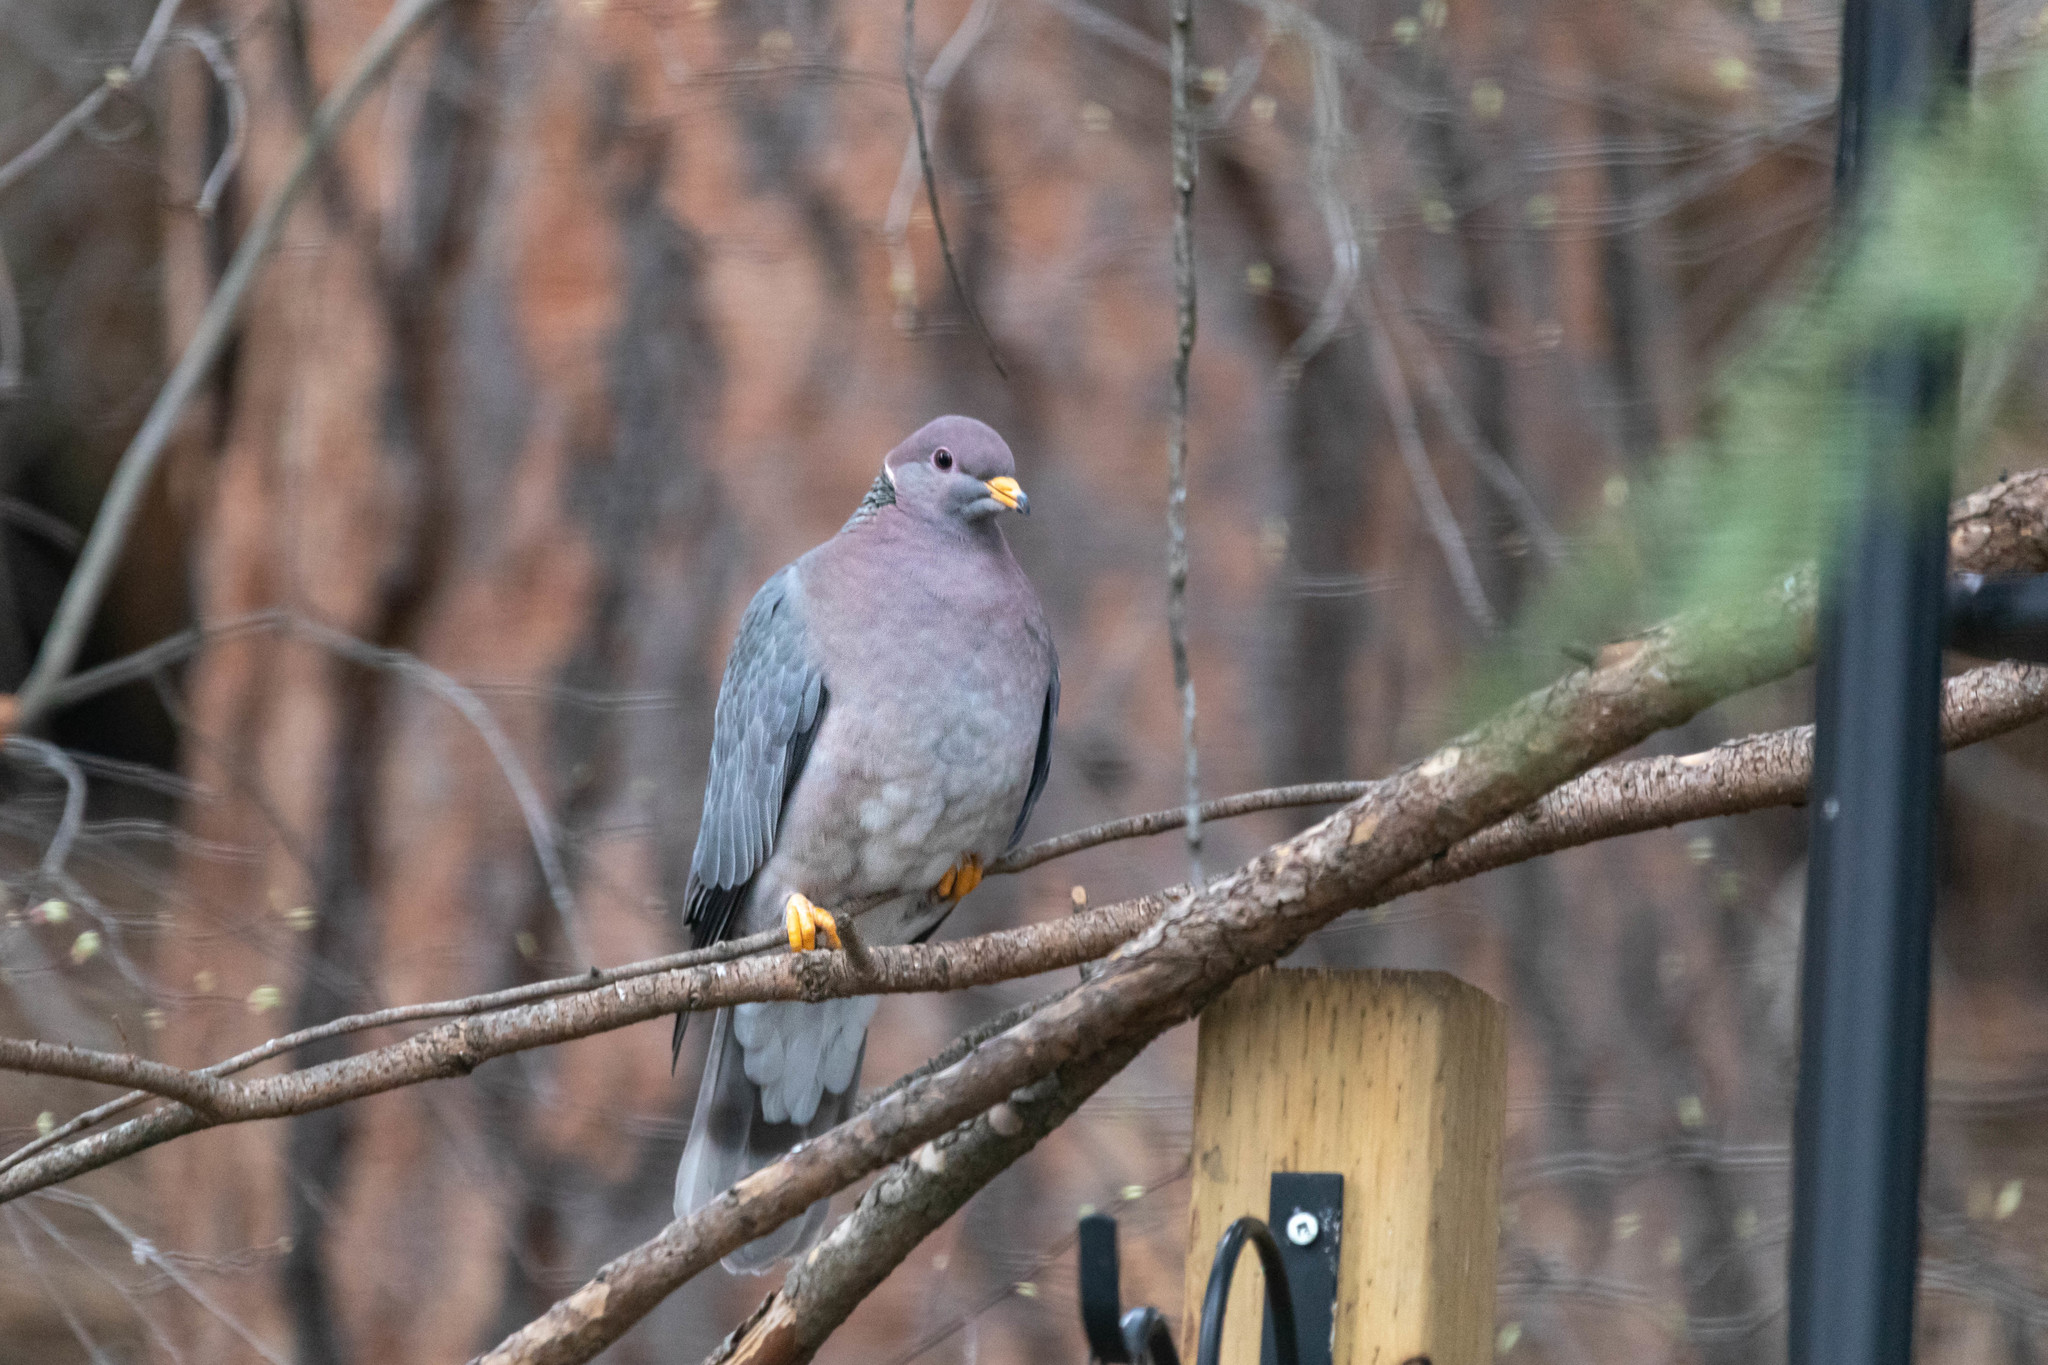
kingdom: Animalia
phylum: Chordata
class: Aves
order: Columbiformes
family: Columbidae
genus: Patagioenas
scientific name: Patagioenas fasciata
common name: Band-tailed pigeon
